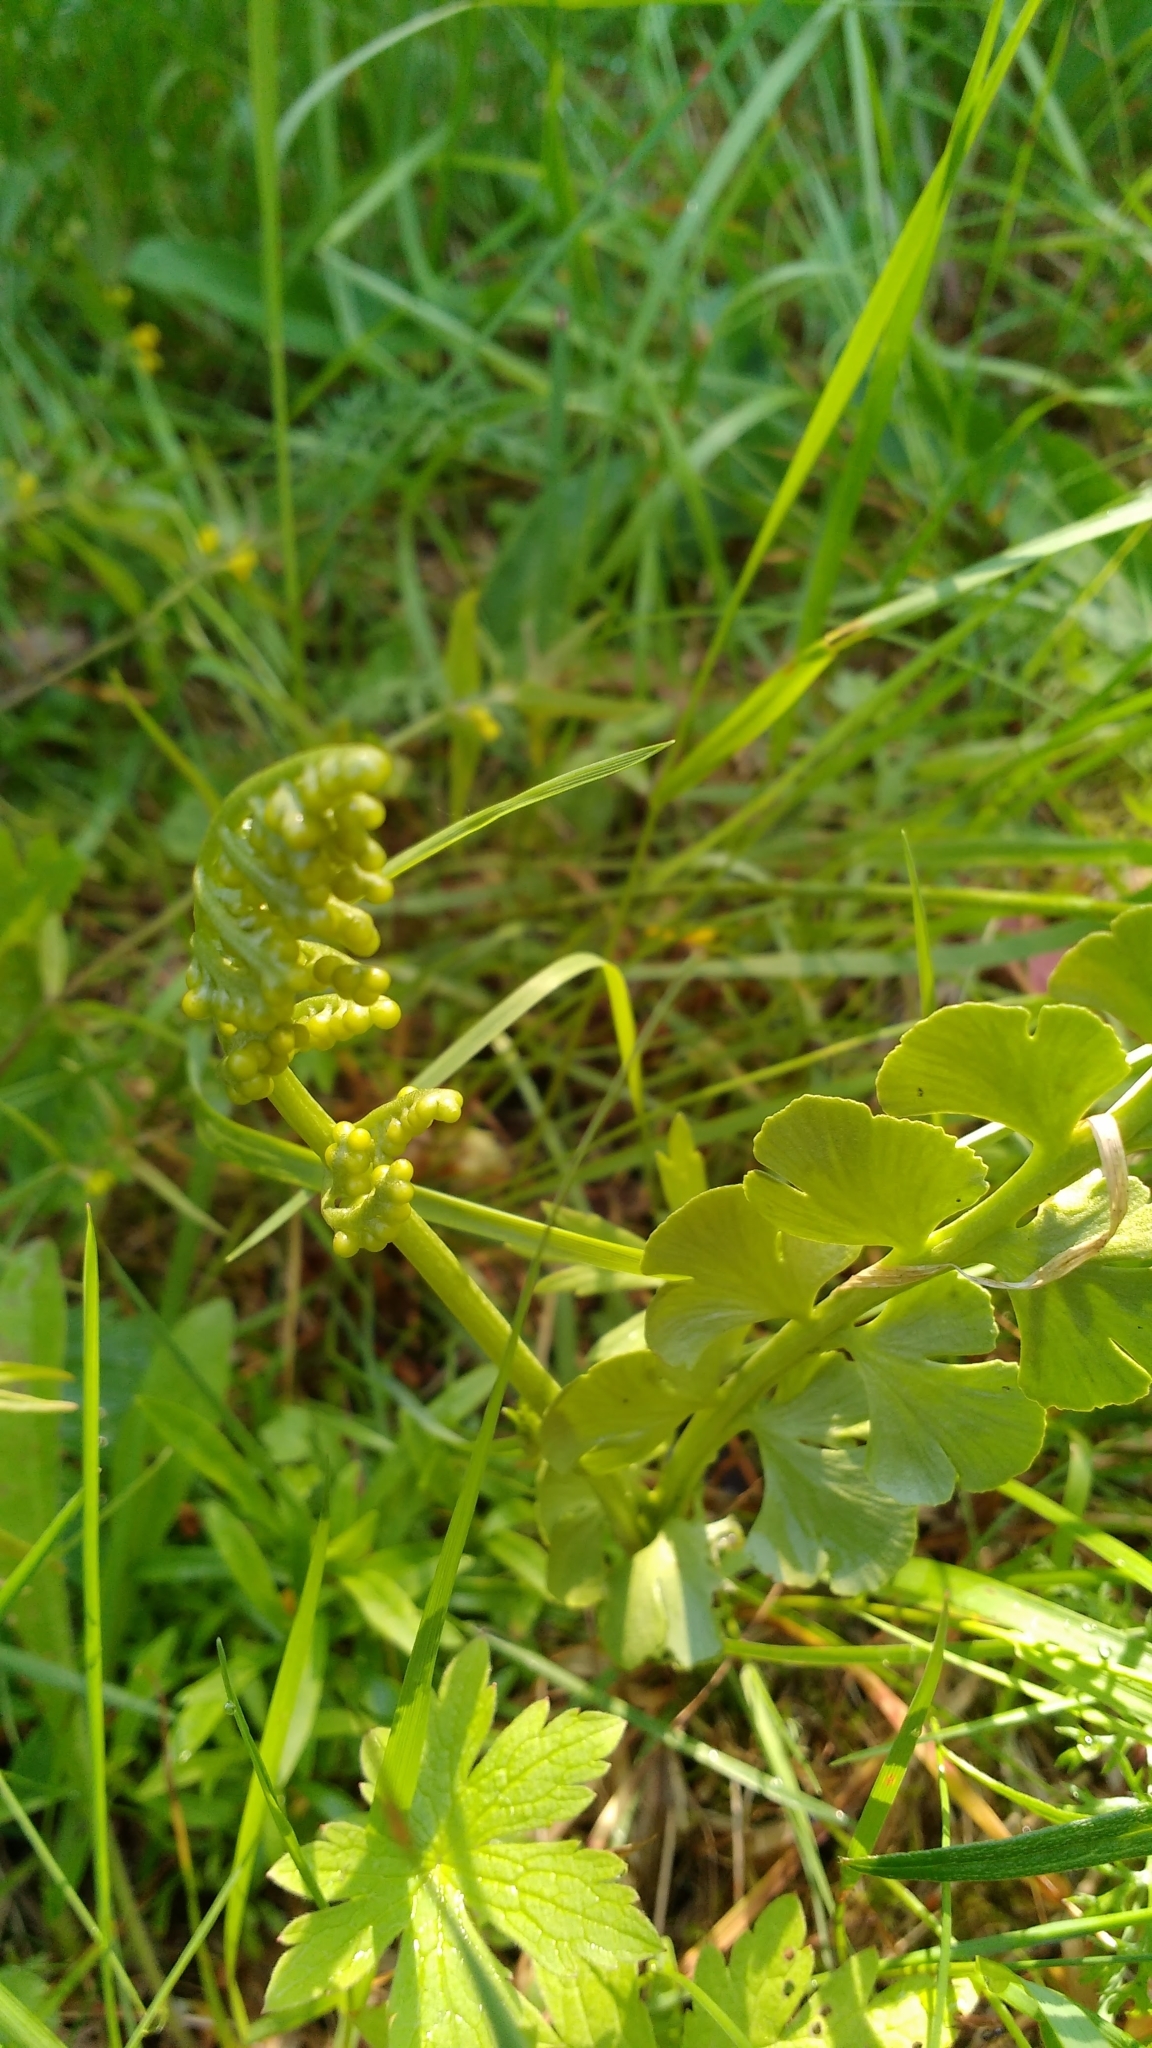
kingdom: Plantae
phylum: Tracheophyta
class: Polypodiopsida
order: Ophioglossales
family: Ophioglossaceae
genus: Botrychium
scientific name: Botrychium lunaria
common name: Moonwort
